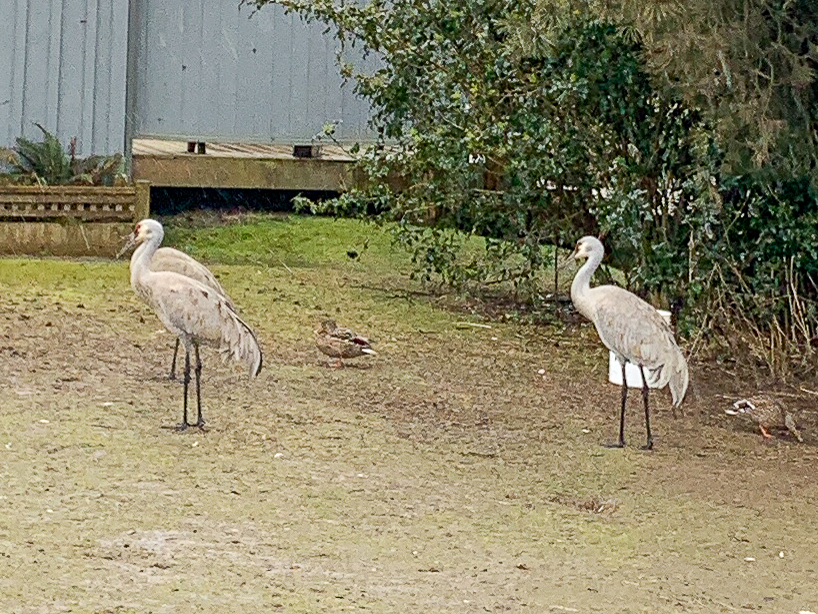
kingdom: Animalia
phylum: Chordata
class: Aves
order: Gruiformes
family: Gruidae
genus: Grus
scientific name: Grus canadensis
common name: Sandhill crane
